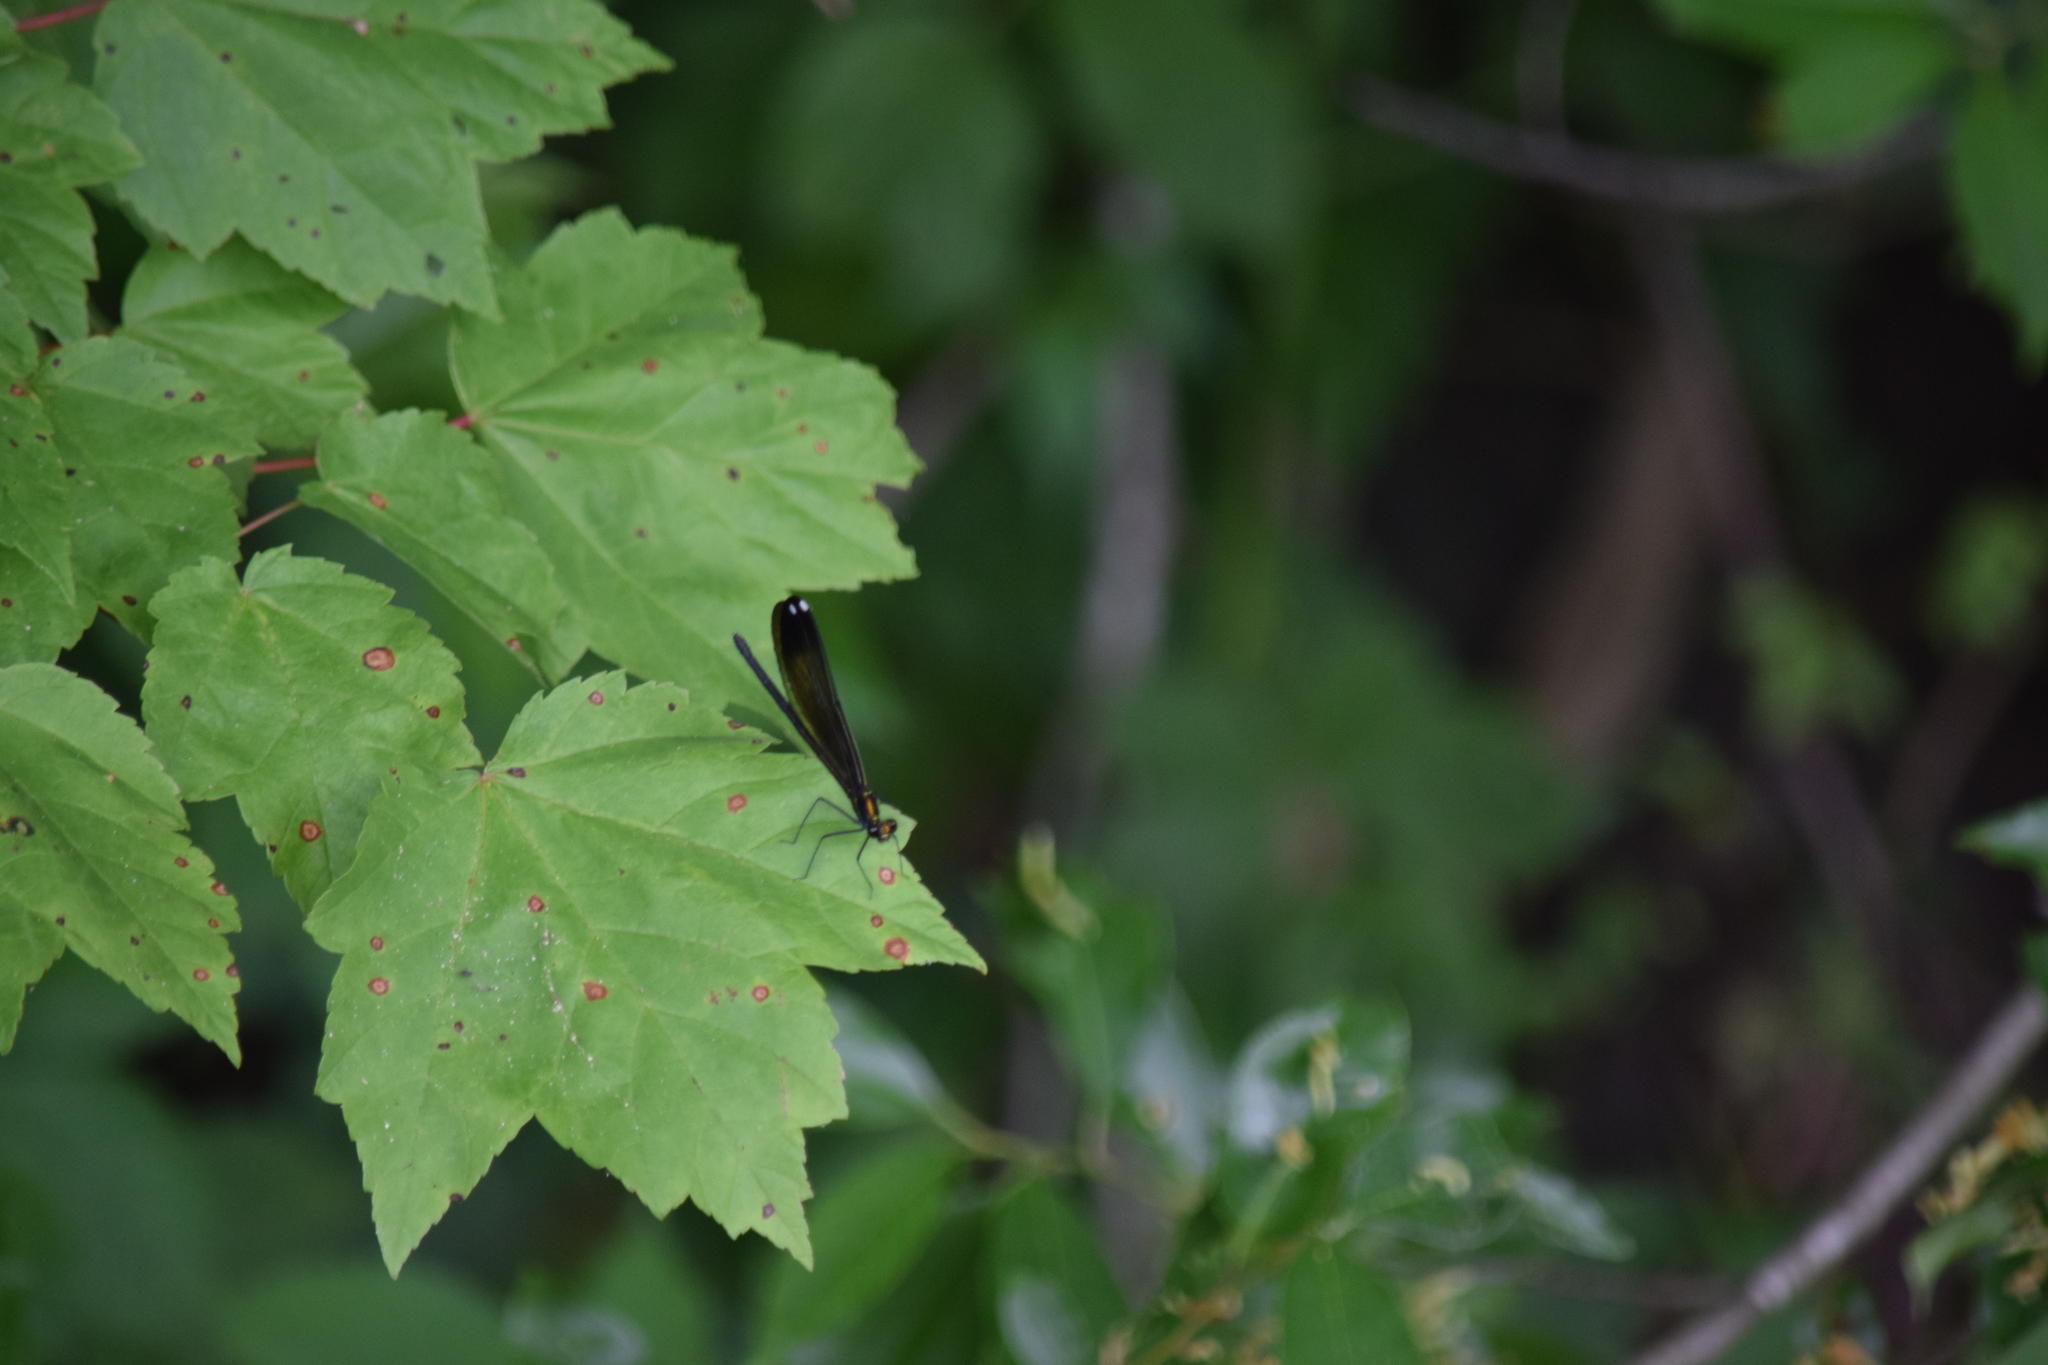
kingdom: Animalia
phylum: Arthropoda
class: Insecta
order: Odonata
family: Calopterygidae
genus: Calopteryx
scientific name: Calopteryx maculata
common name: Ebony jewelwing
